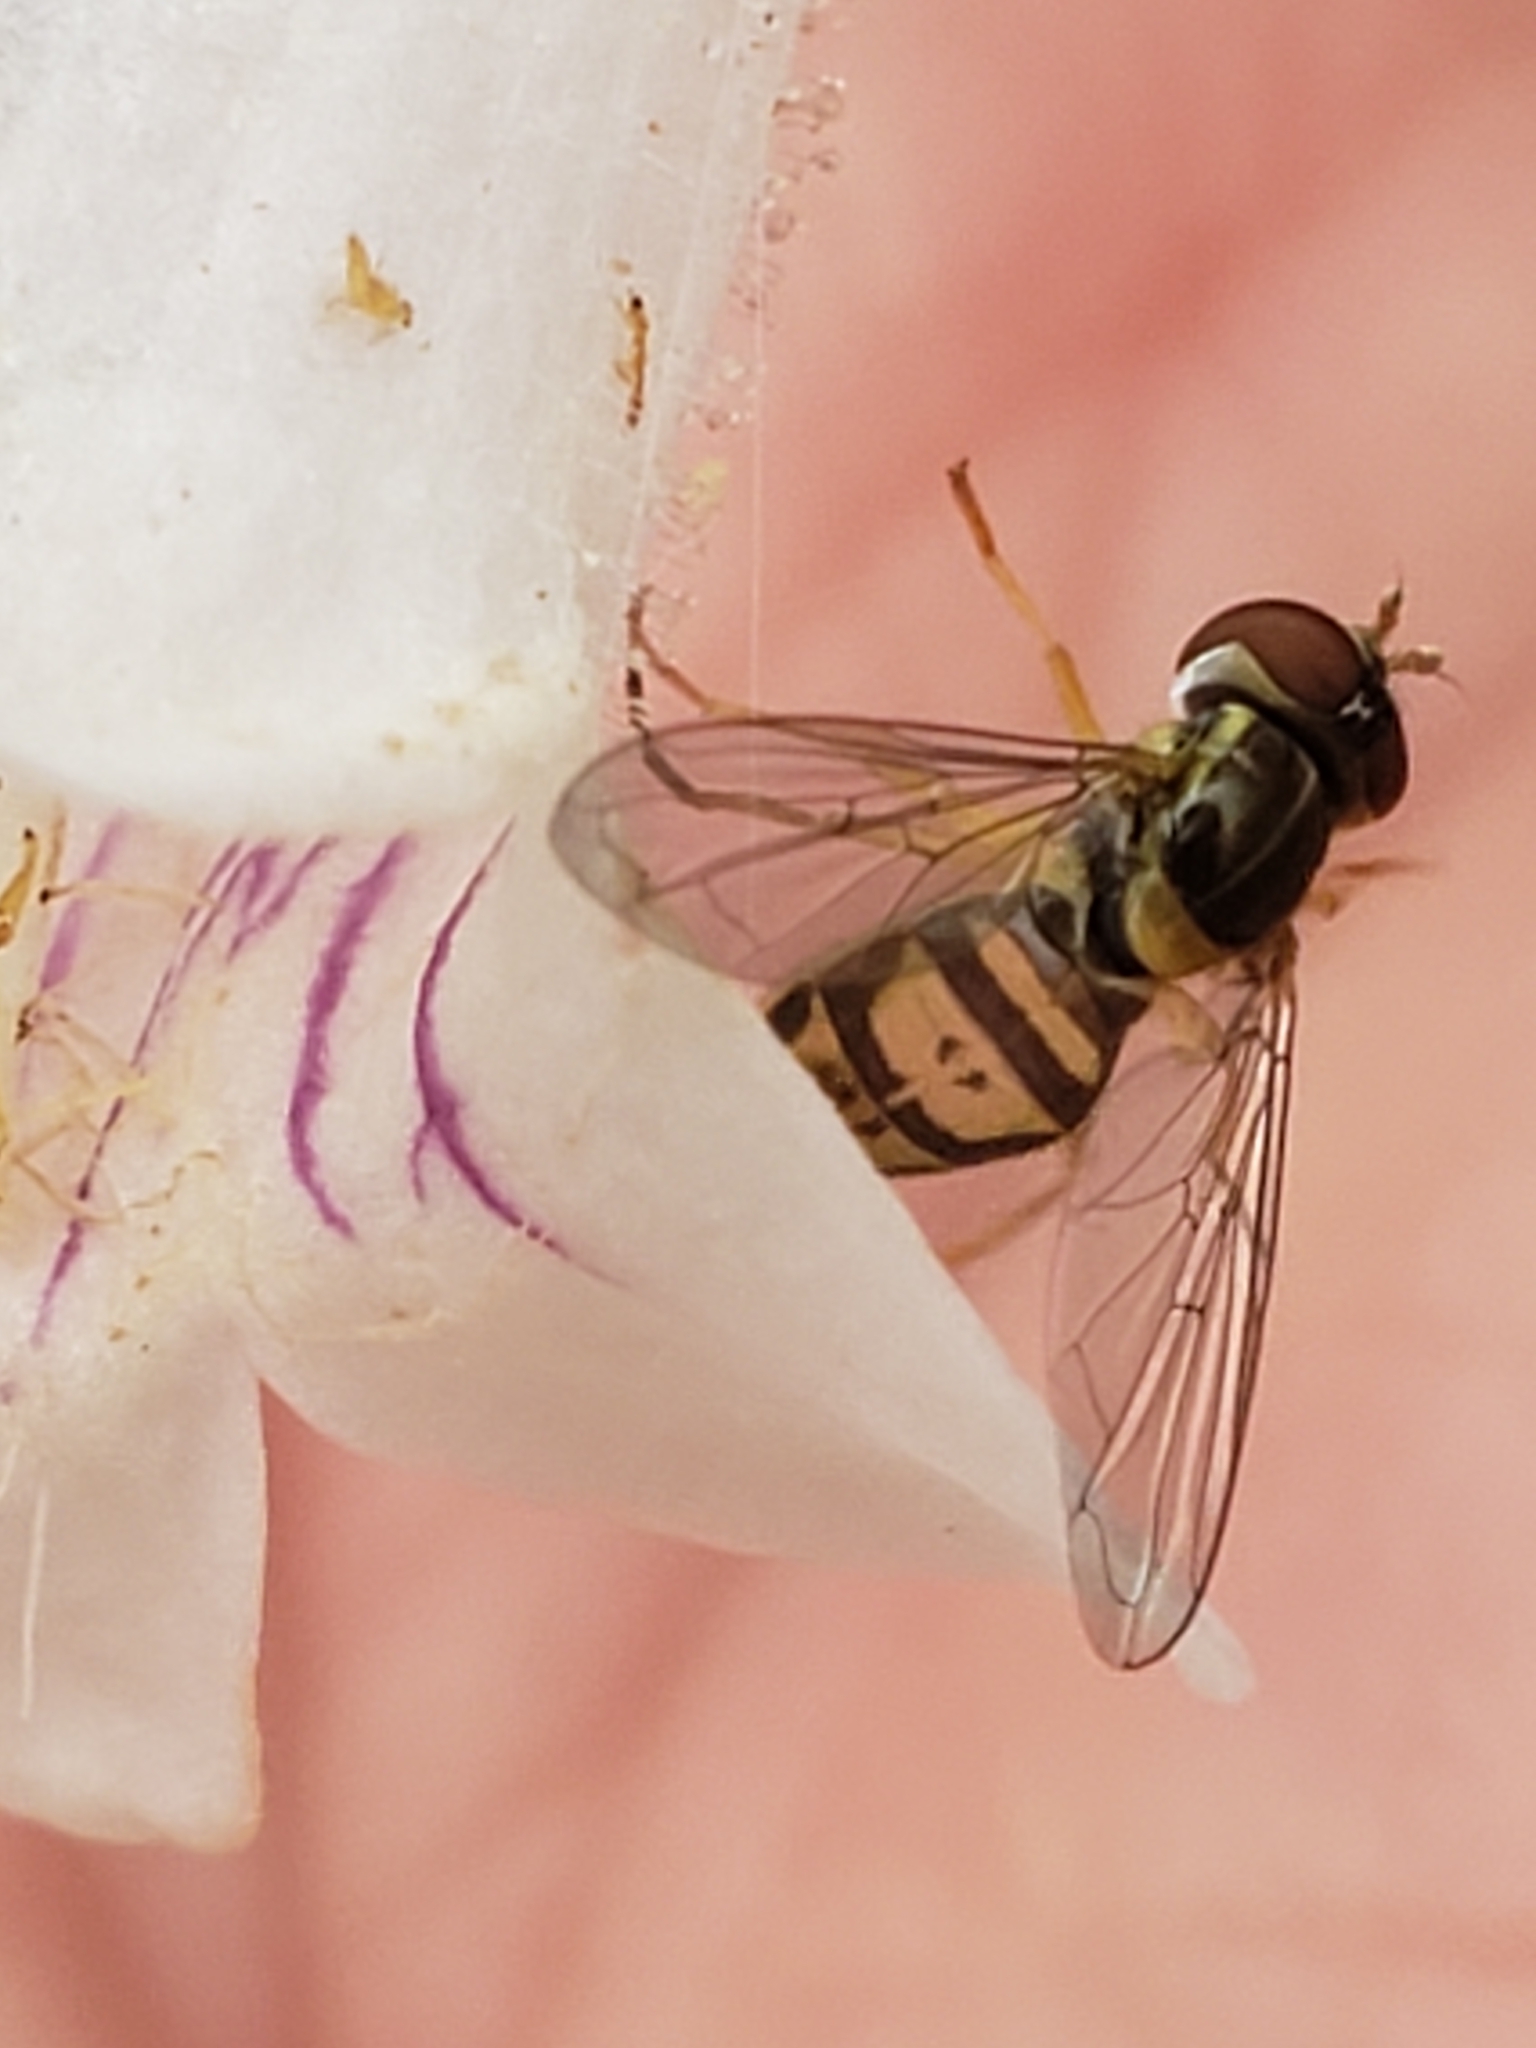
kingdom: Animalia
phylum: Arthropoda
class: Insecta
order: Diptera
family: Syrphidae
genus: Toxomerus
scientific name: Toxomerus marginatus
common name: Syrphid fly
